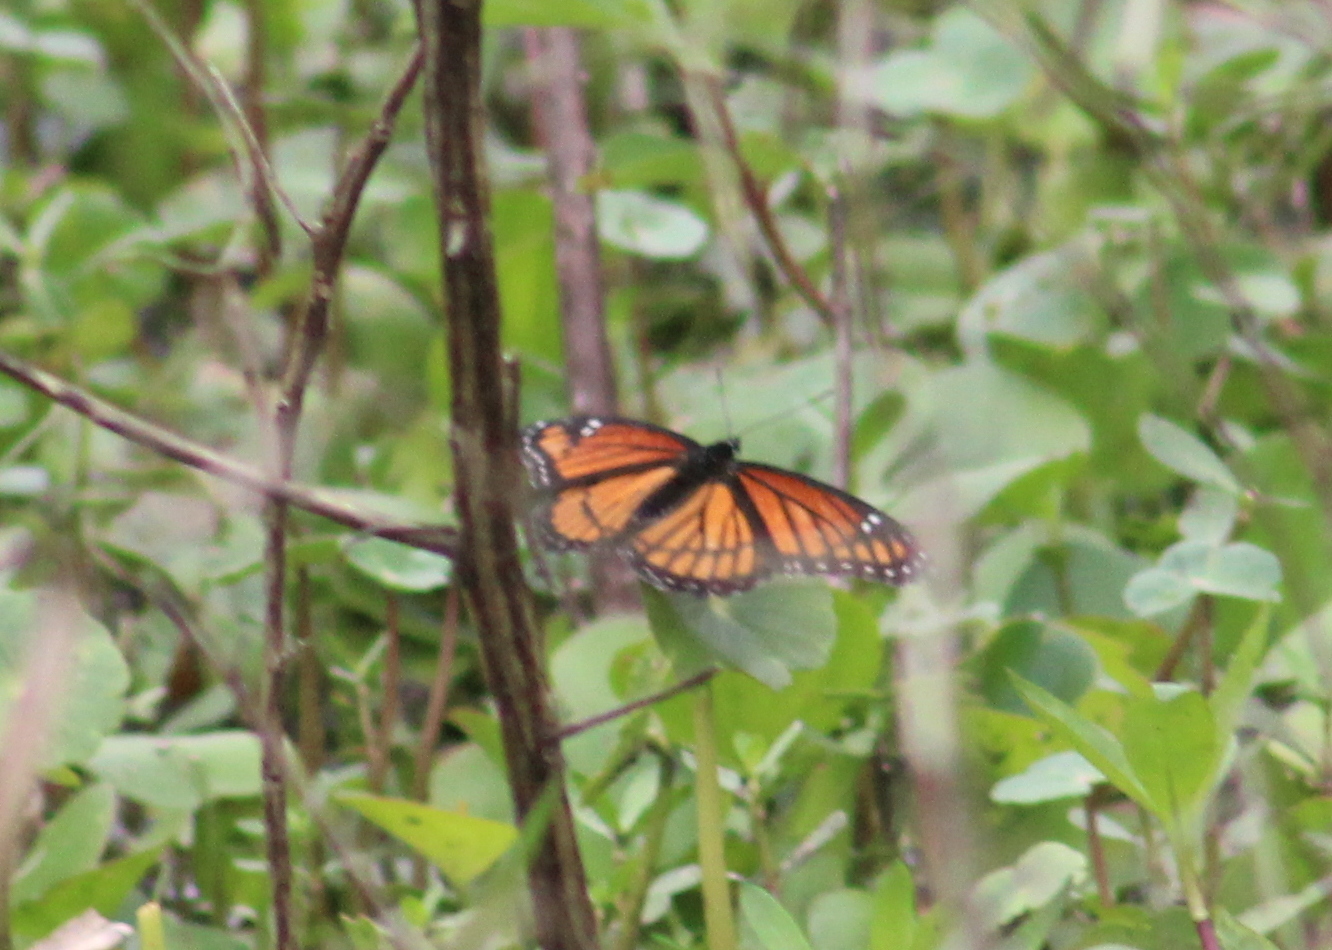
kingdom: Animalia
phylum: Arthropoda
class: Insecta
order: Lepidoptera
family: Nymphalidae
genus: Limenitis
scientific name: Limenitis archippus
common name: Viceroy
